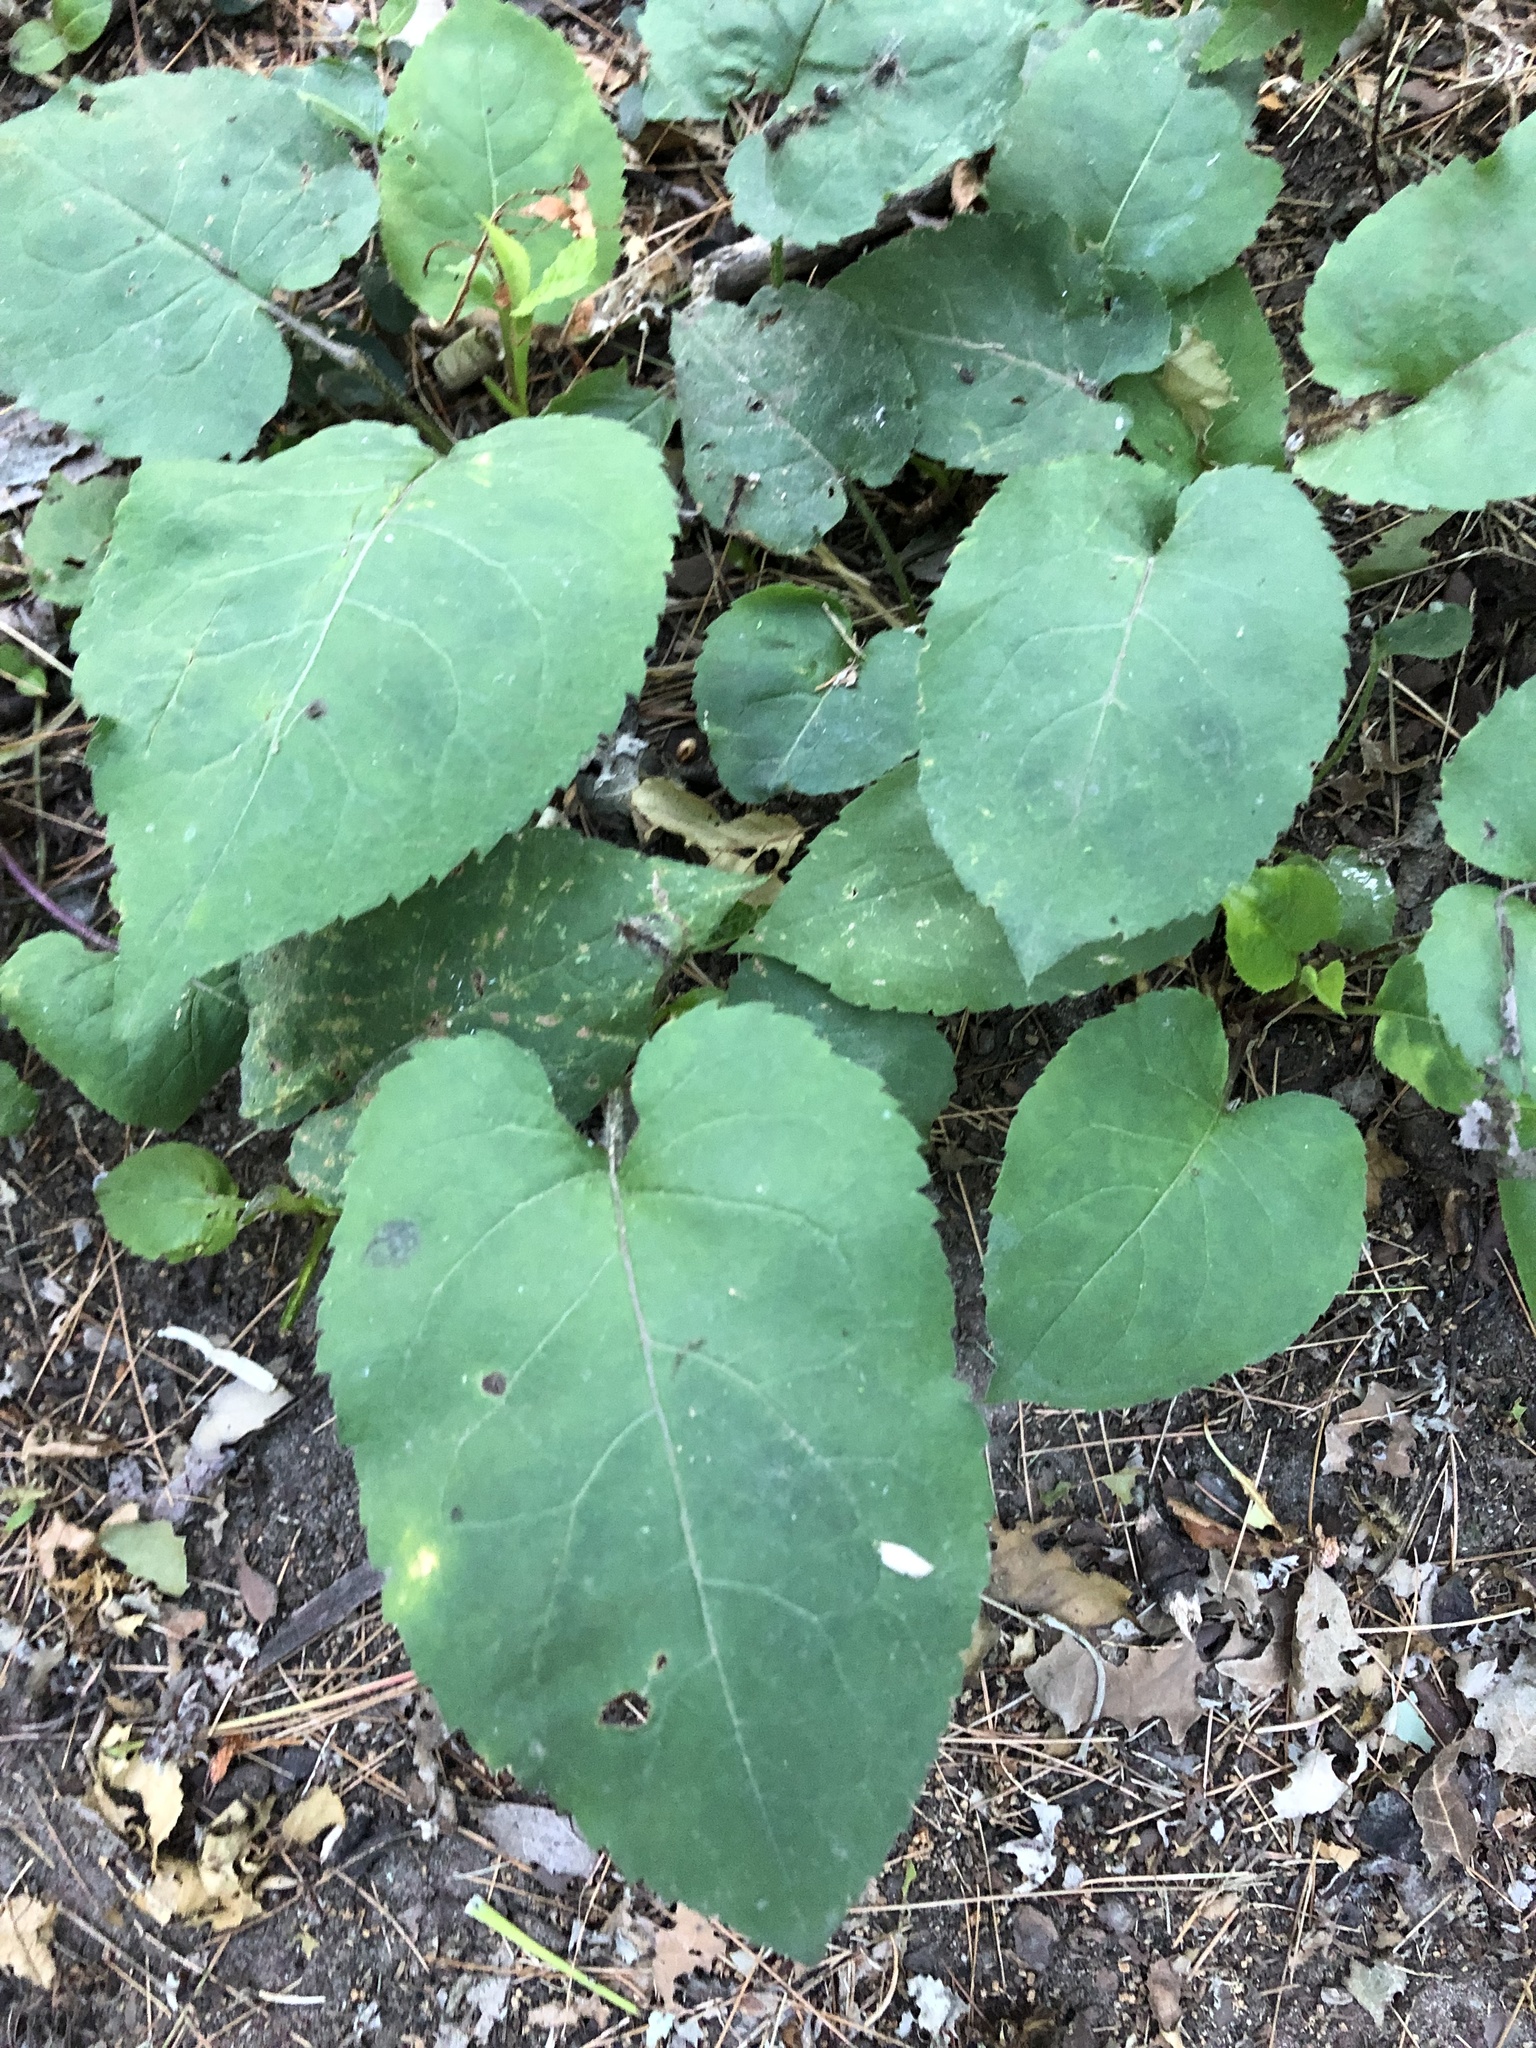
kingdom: Plantae
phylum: Tracheophyta
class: Magnoliopsida
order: Asterales
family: Asteraceae
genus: Eurybia
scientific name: Eurybia macrophylla
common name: Big-leaved aster
